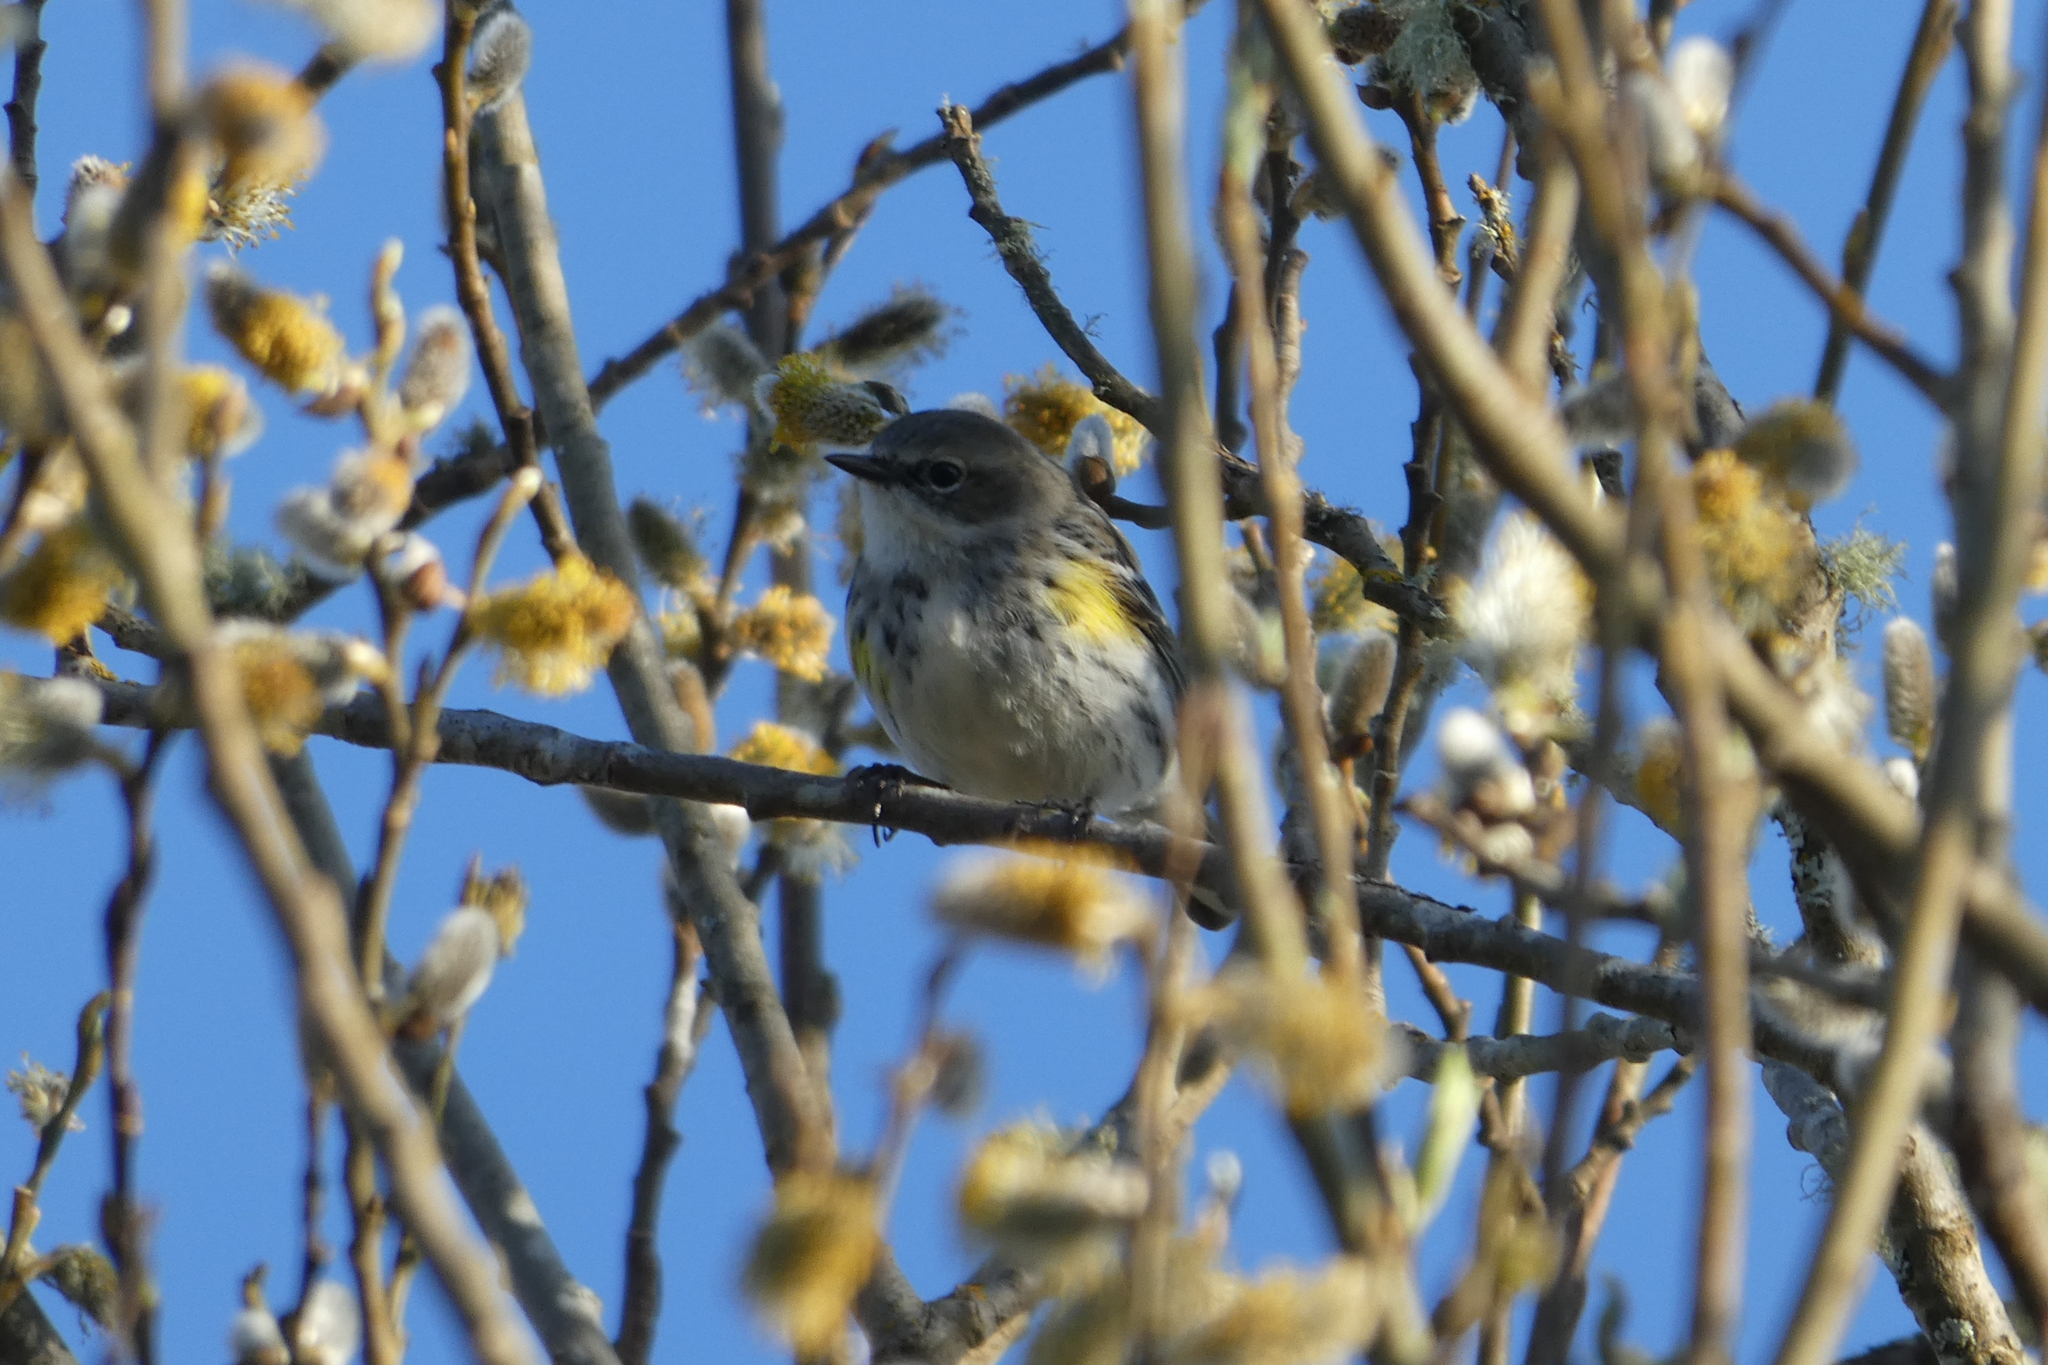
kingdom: Animalia
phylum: Chordata
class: Aves
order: Passeriformes
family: Parulidae
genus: Setophaga
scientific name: Setophaga coronata
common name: Myrtle warbler
